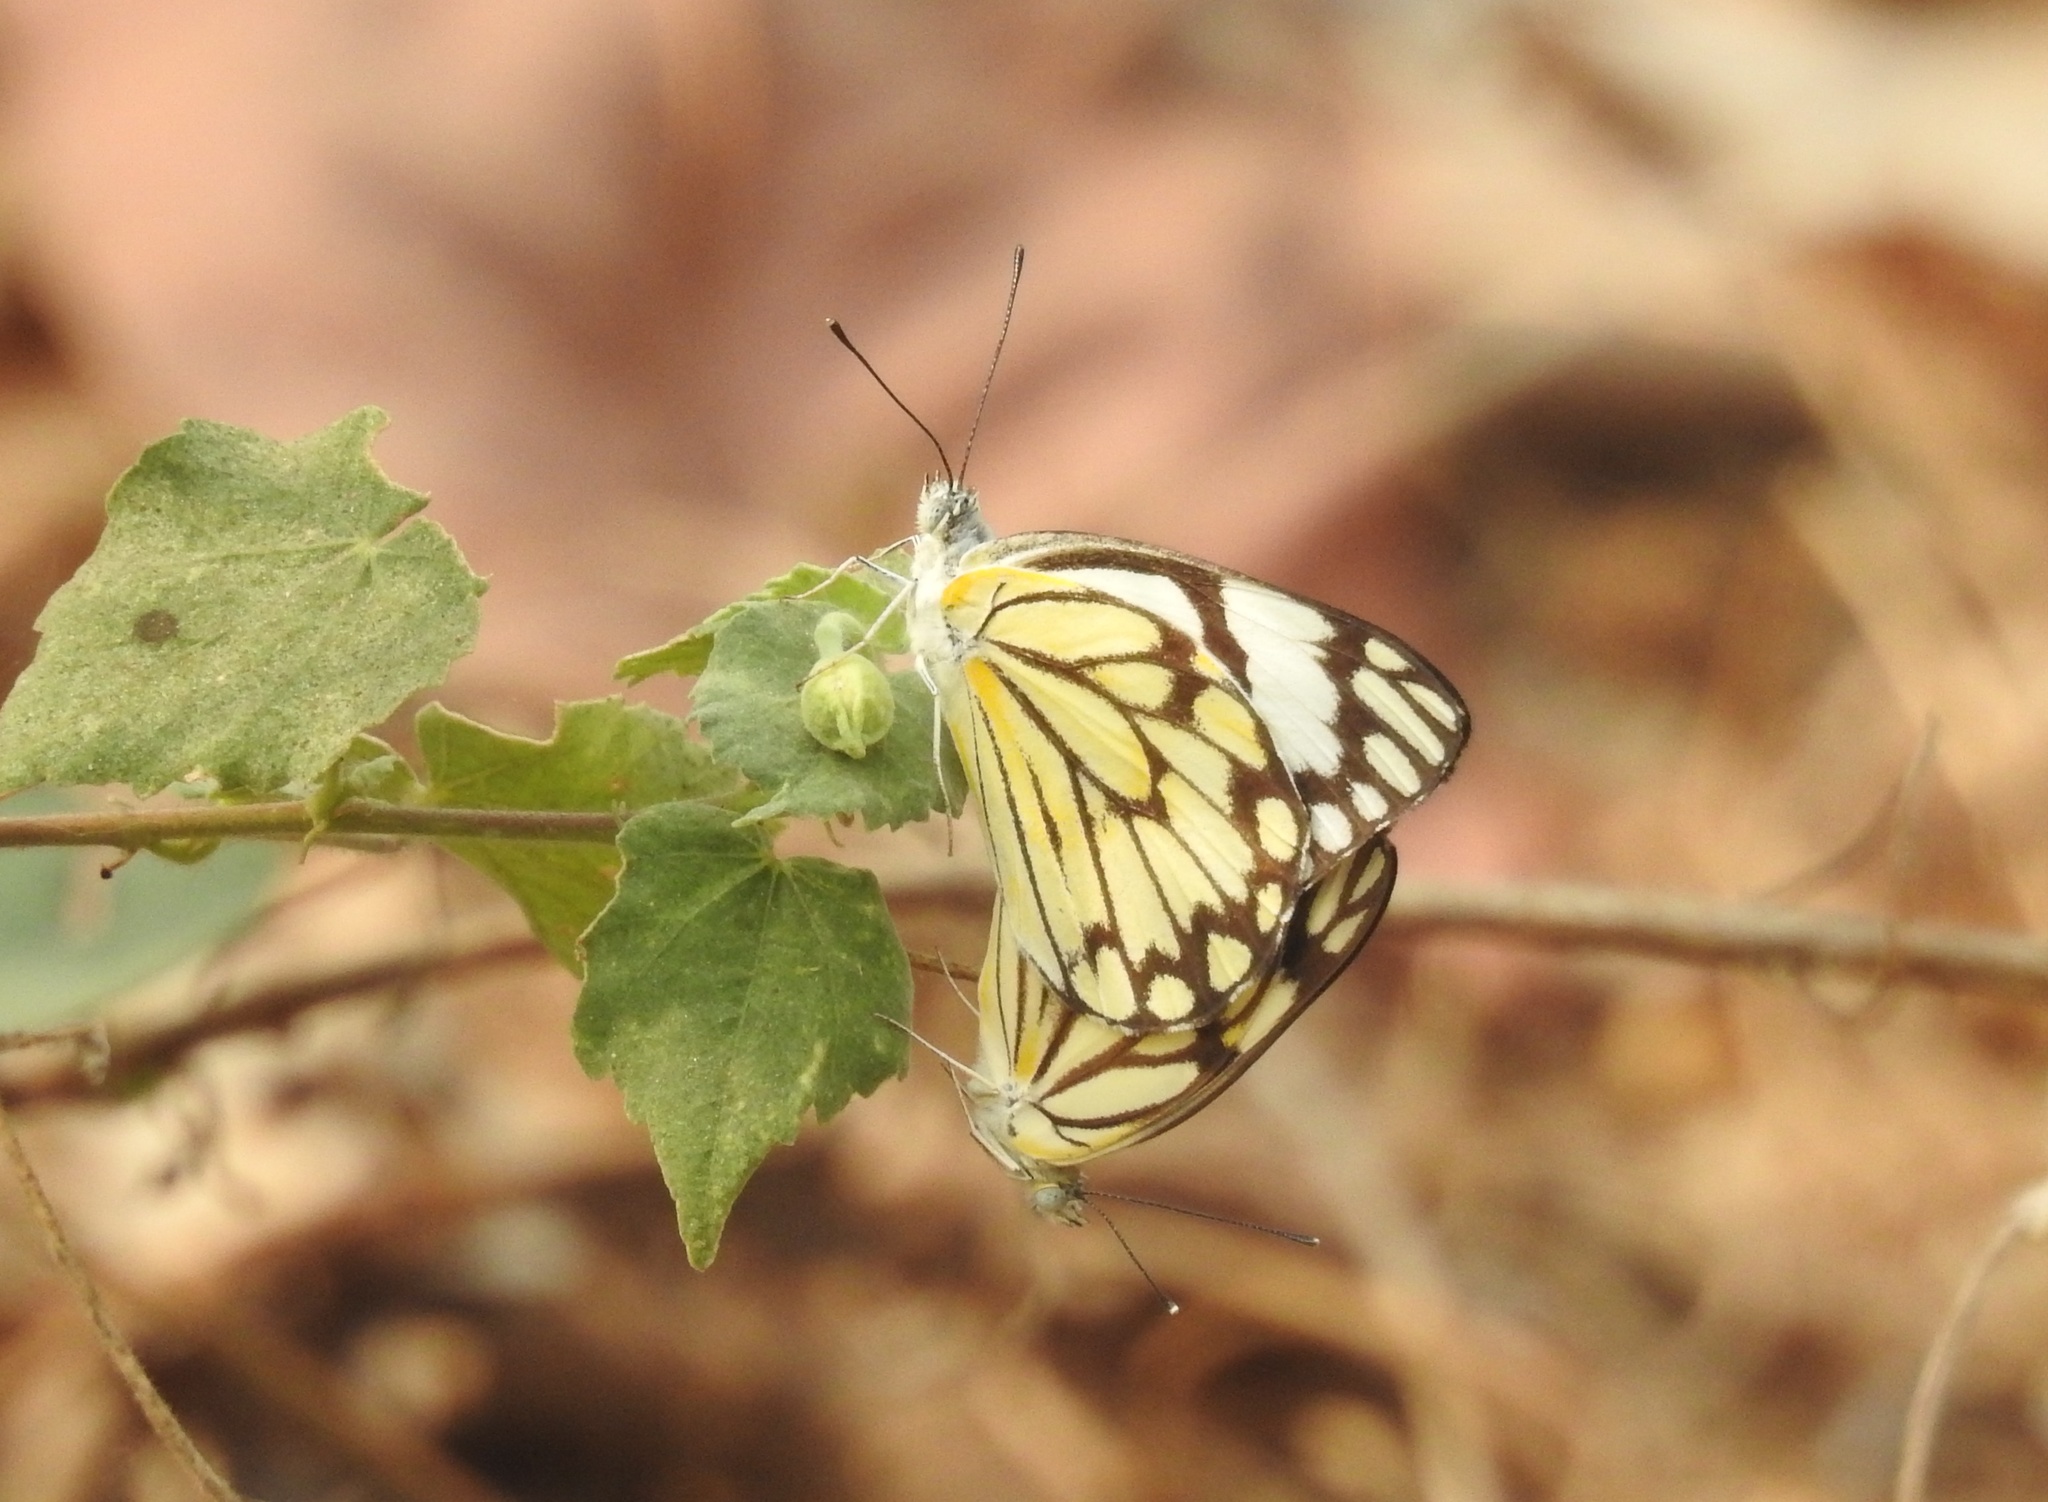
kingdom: Animalia
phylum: Arthropoda
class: Insecta
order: Lepidoptera
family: Pieridae
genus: Belenois
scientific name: Belenois aurota
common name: Brown-veined white
